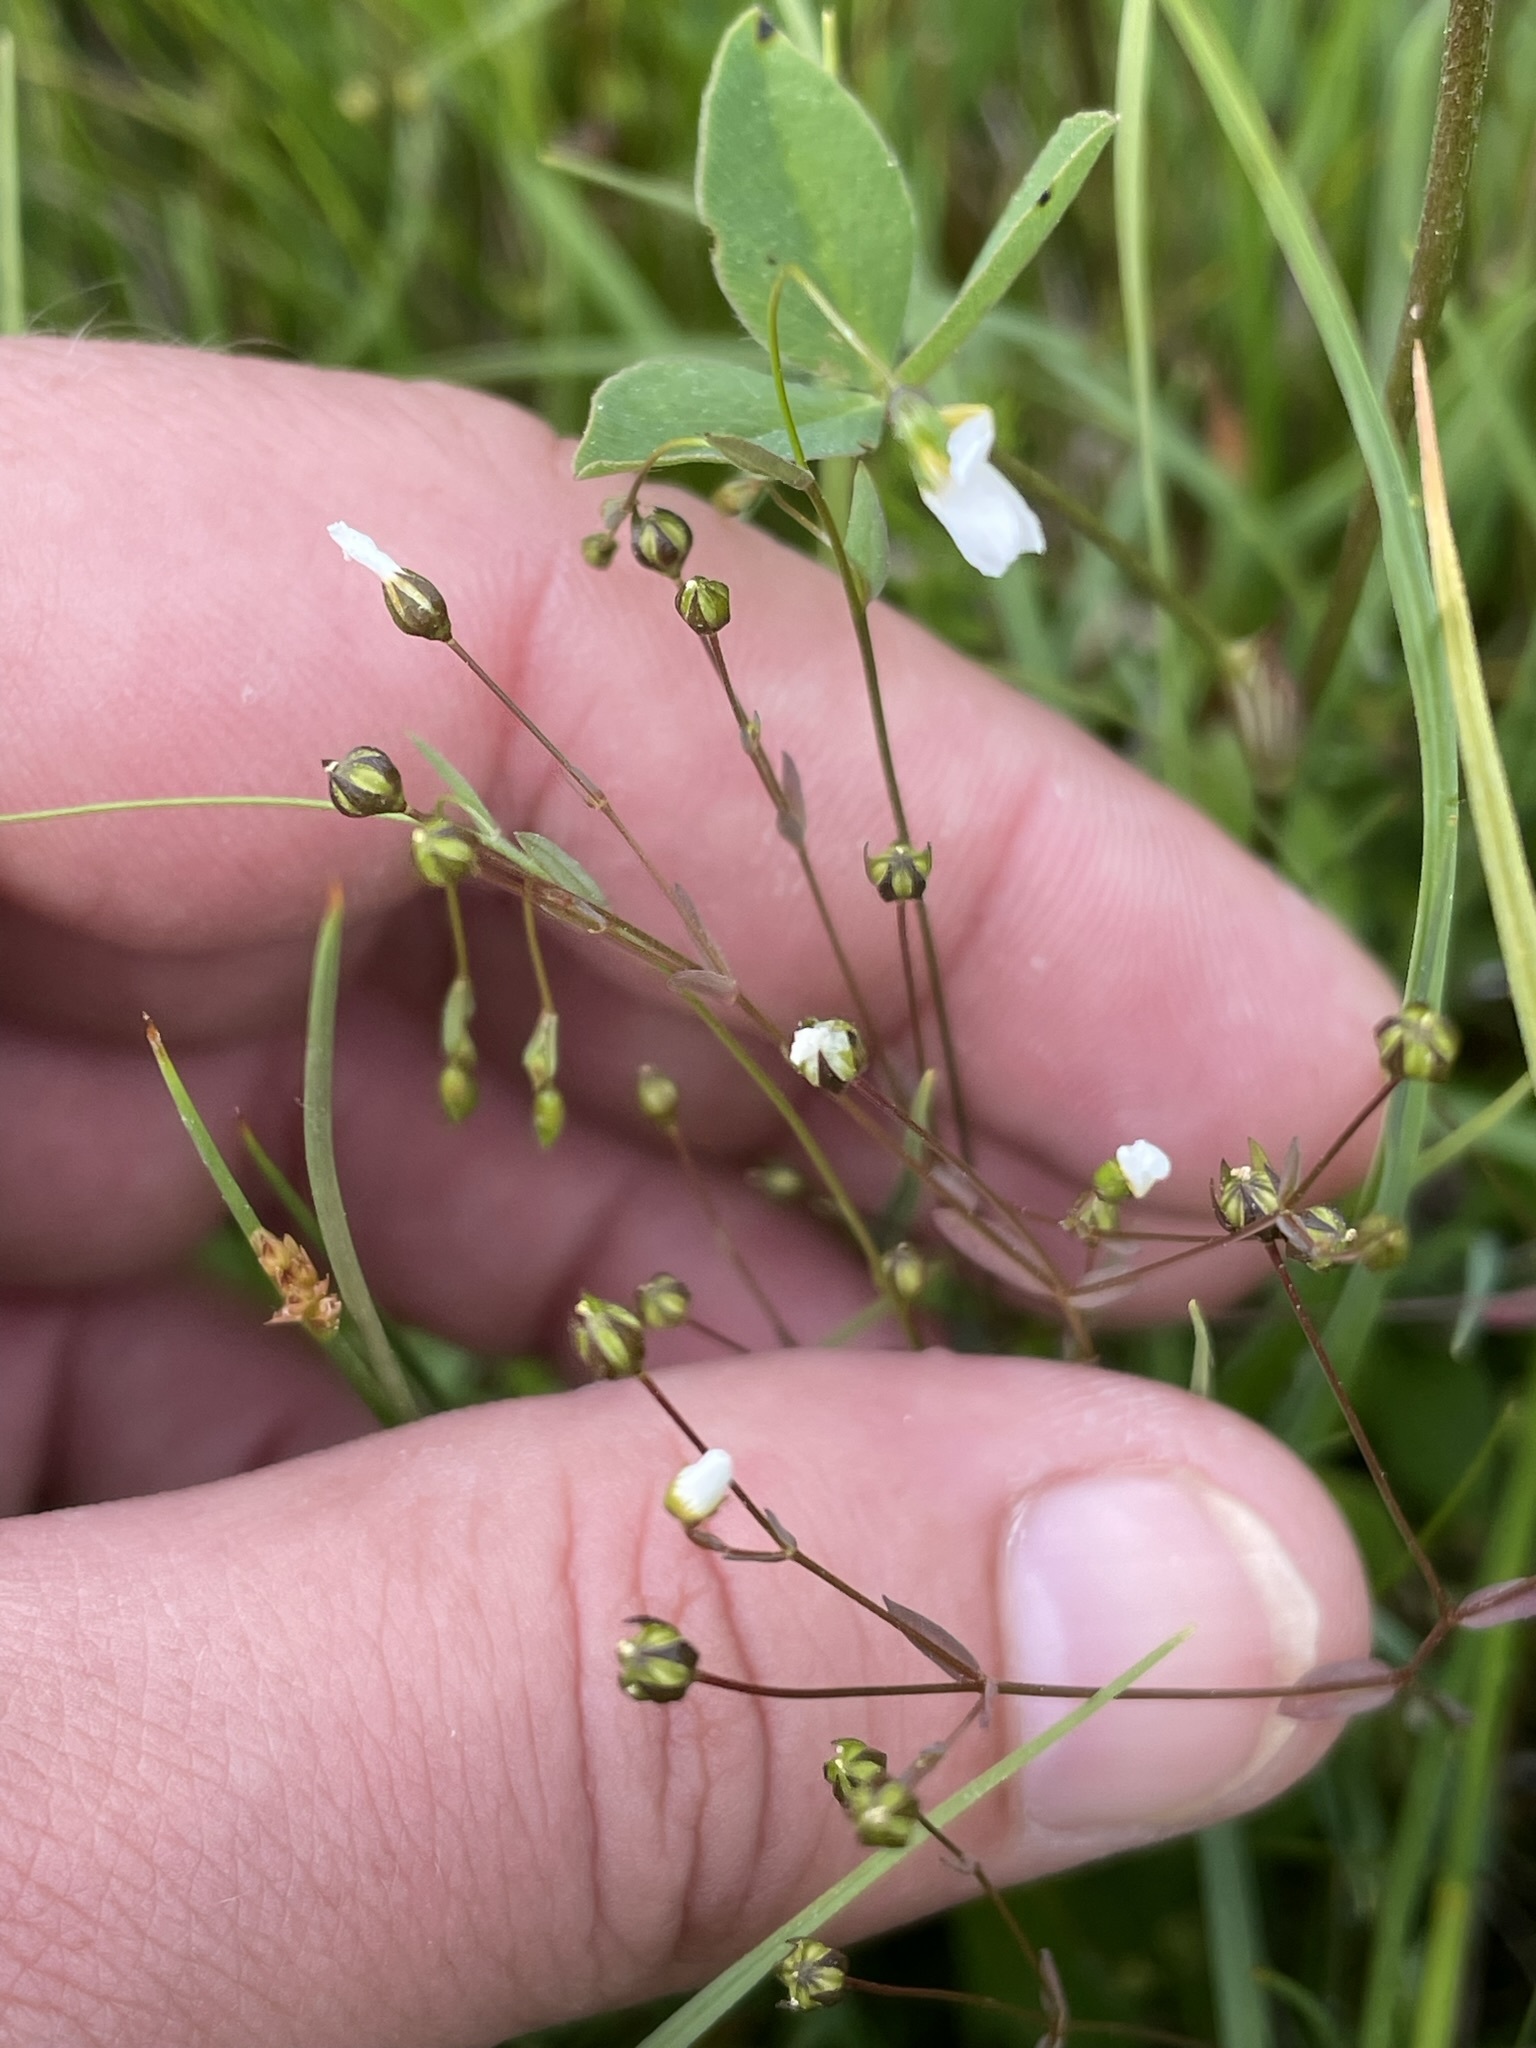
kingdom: Plantae
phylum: Tracheophyta
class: Magnoliopsida
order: Malpighiales
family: Linaceae
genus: Linum
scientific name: Linum catharticum
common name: Fairy flax
